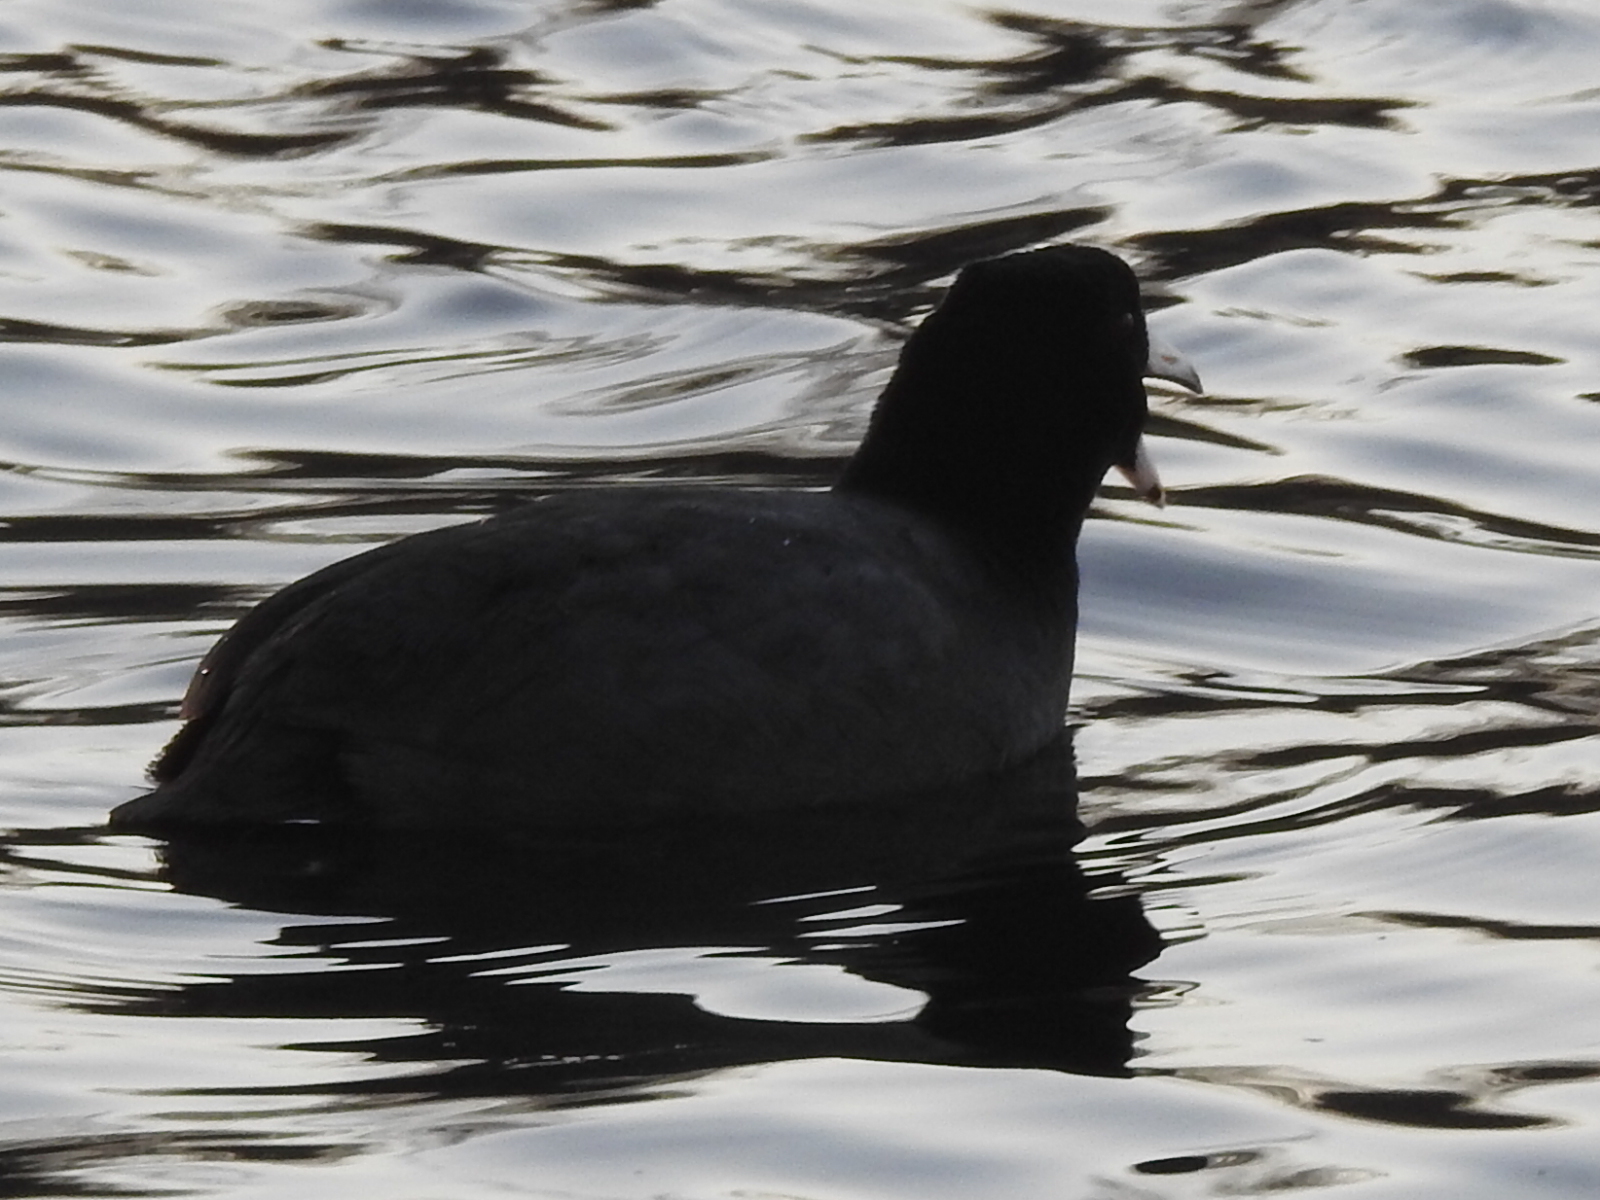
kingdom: Animalia
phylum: Chordata
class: Aves
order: Gruiformes
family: Rallidae
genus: Fulica
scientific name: Fulica americana
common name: American coot
